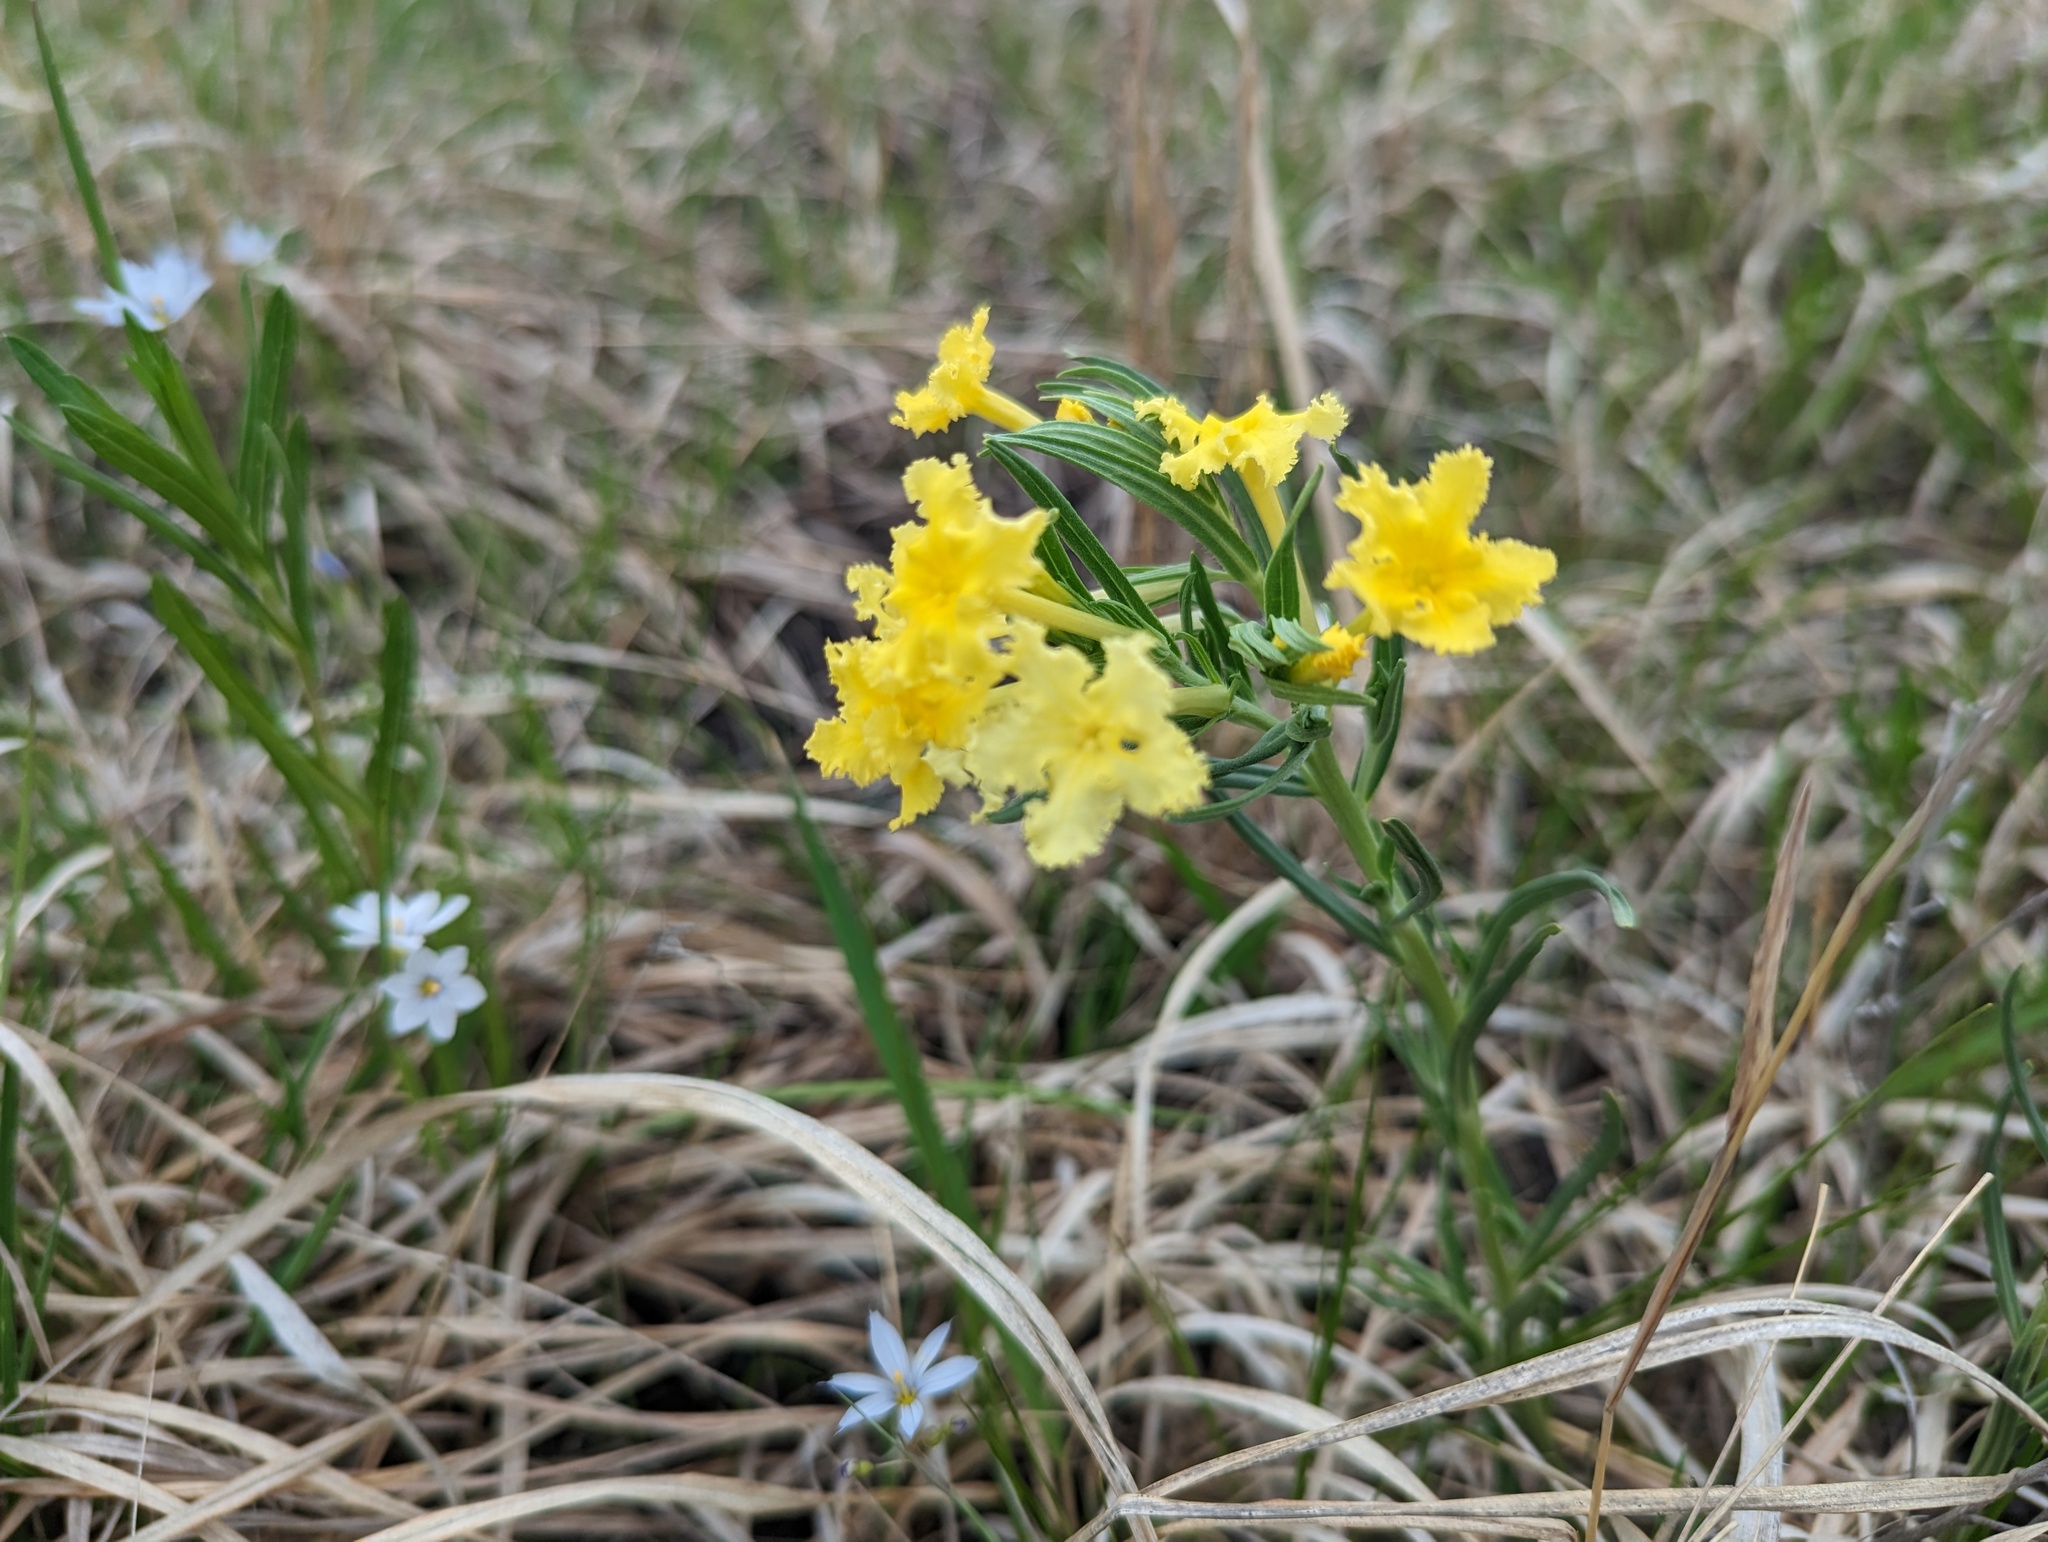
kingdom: Plantae
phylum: Tracheophyta
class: Magnoliopsida
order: Boraginales
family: Boraginaceae
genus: Lithospermum
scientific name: Lithospermum incisum
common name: Fringed gromwell
